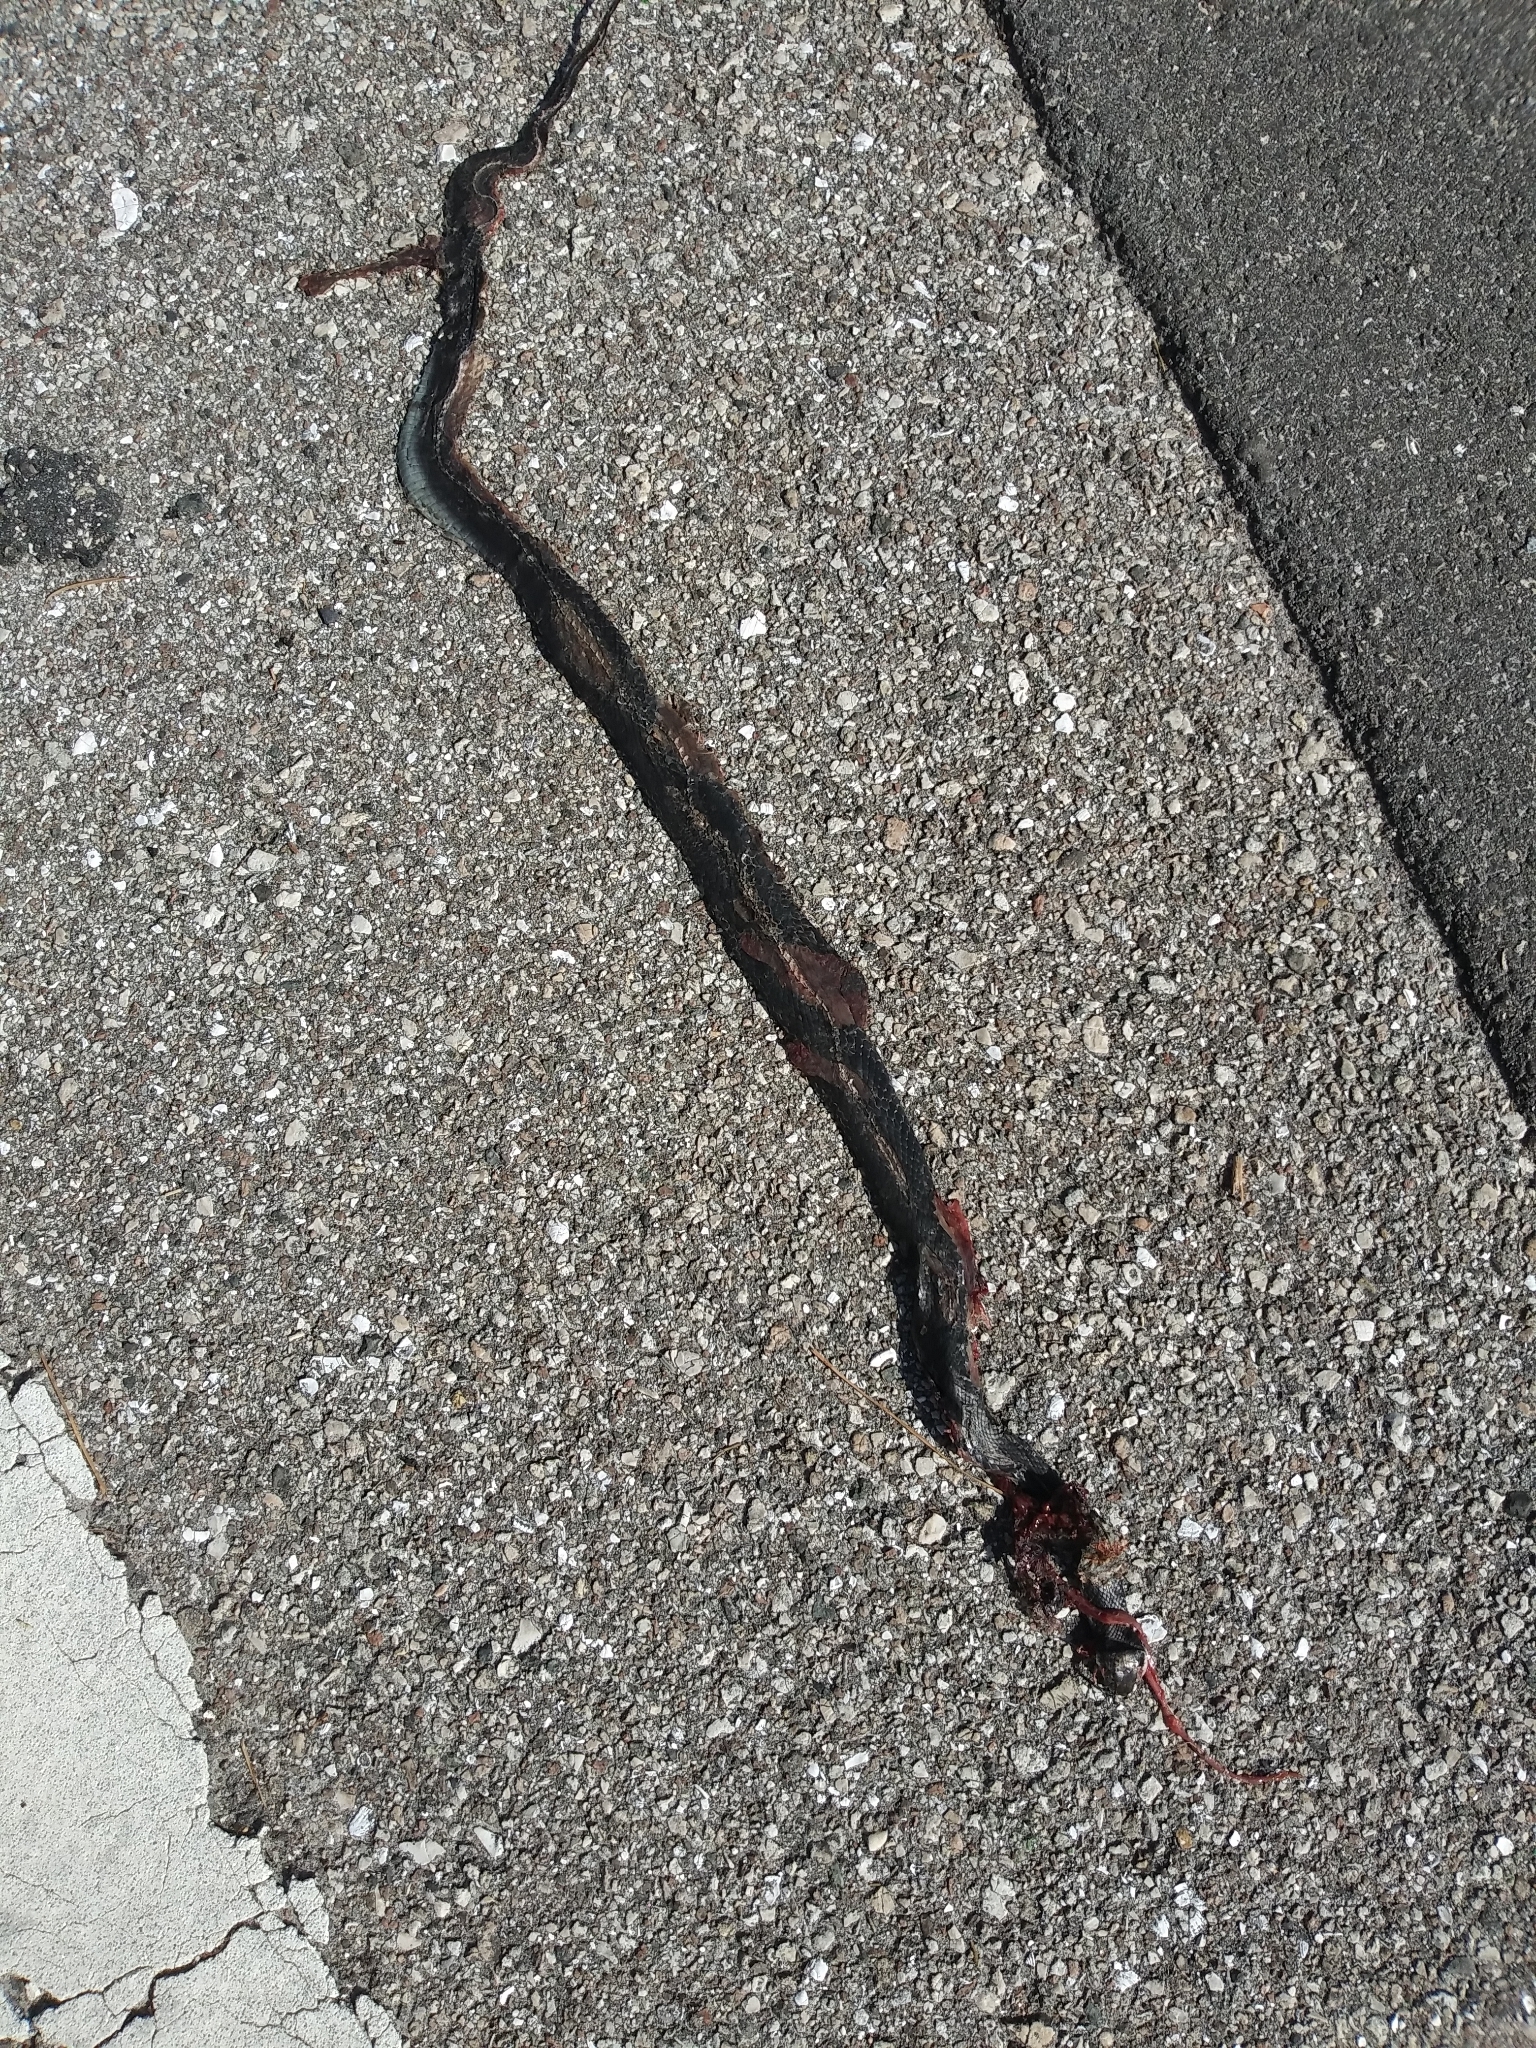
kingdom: Animalia
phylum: Chordata
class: Squamata
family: Colubridae
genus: Coluber
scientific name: Coluber constrictor
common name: Eastern racer
